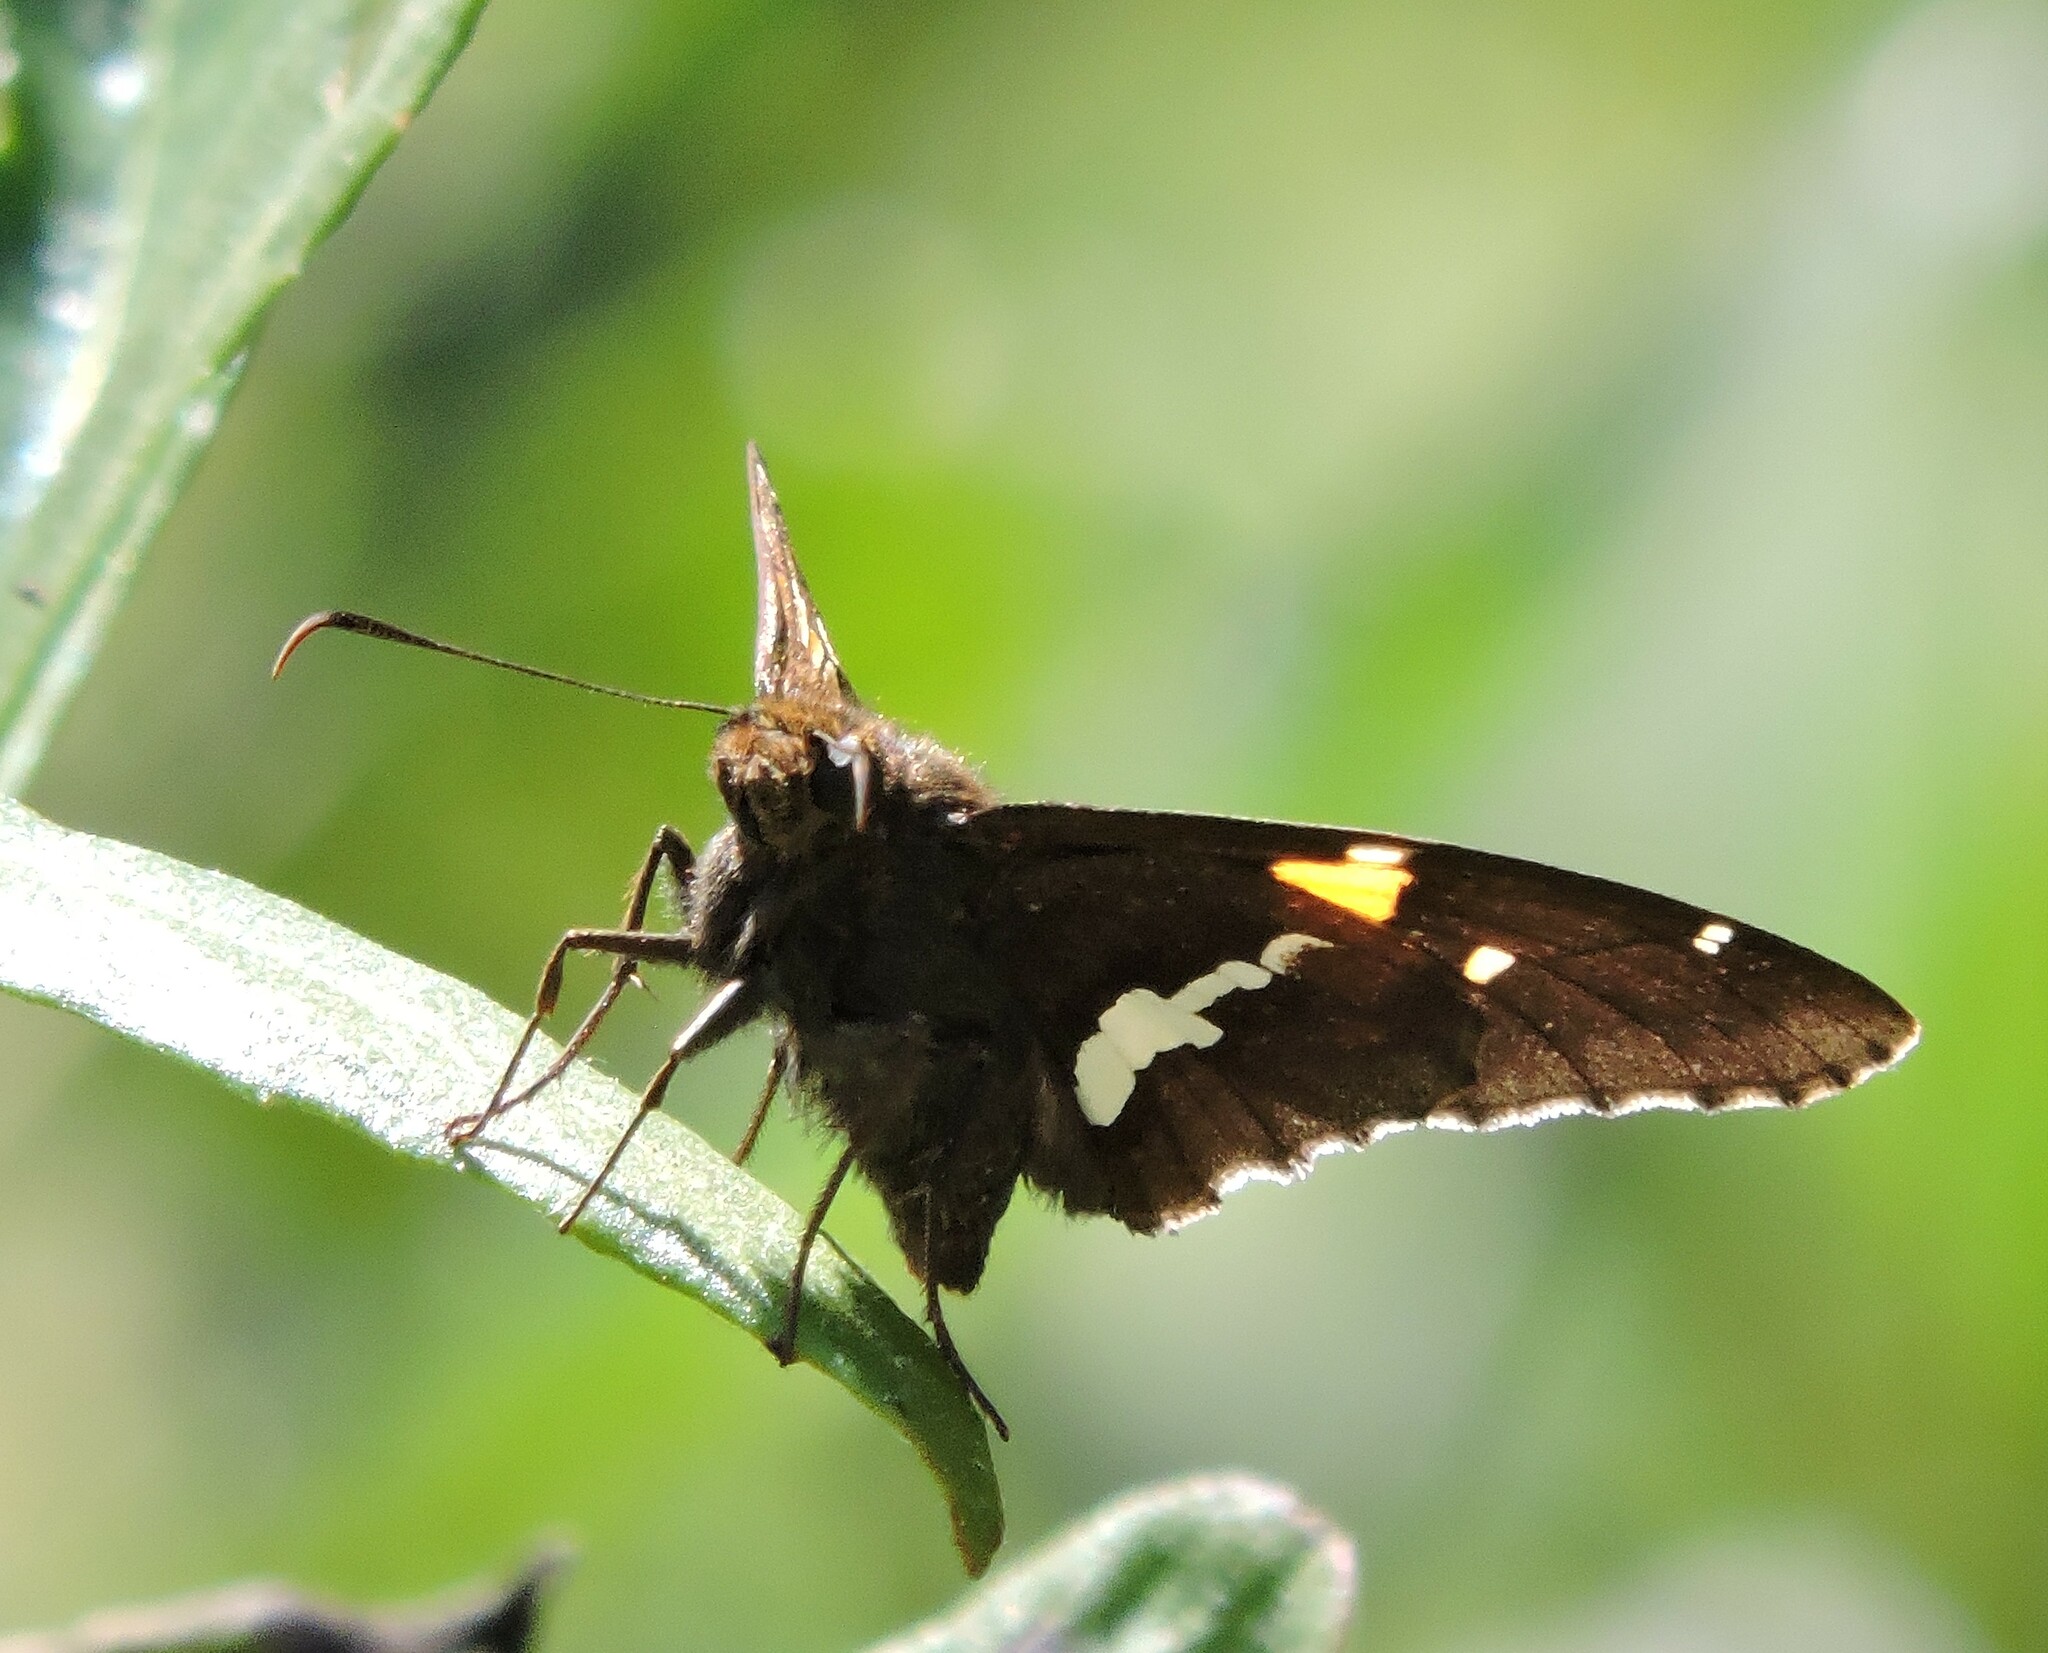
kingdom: Animalia
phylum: Arthropoda
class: Insecta
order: Lepidoptera
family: Hesperiidae
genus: Epargyreus
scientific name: Epargyreus clarus
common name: Silver-spotted skipper
